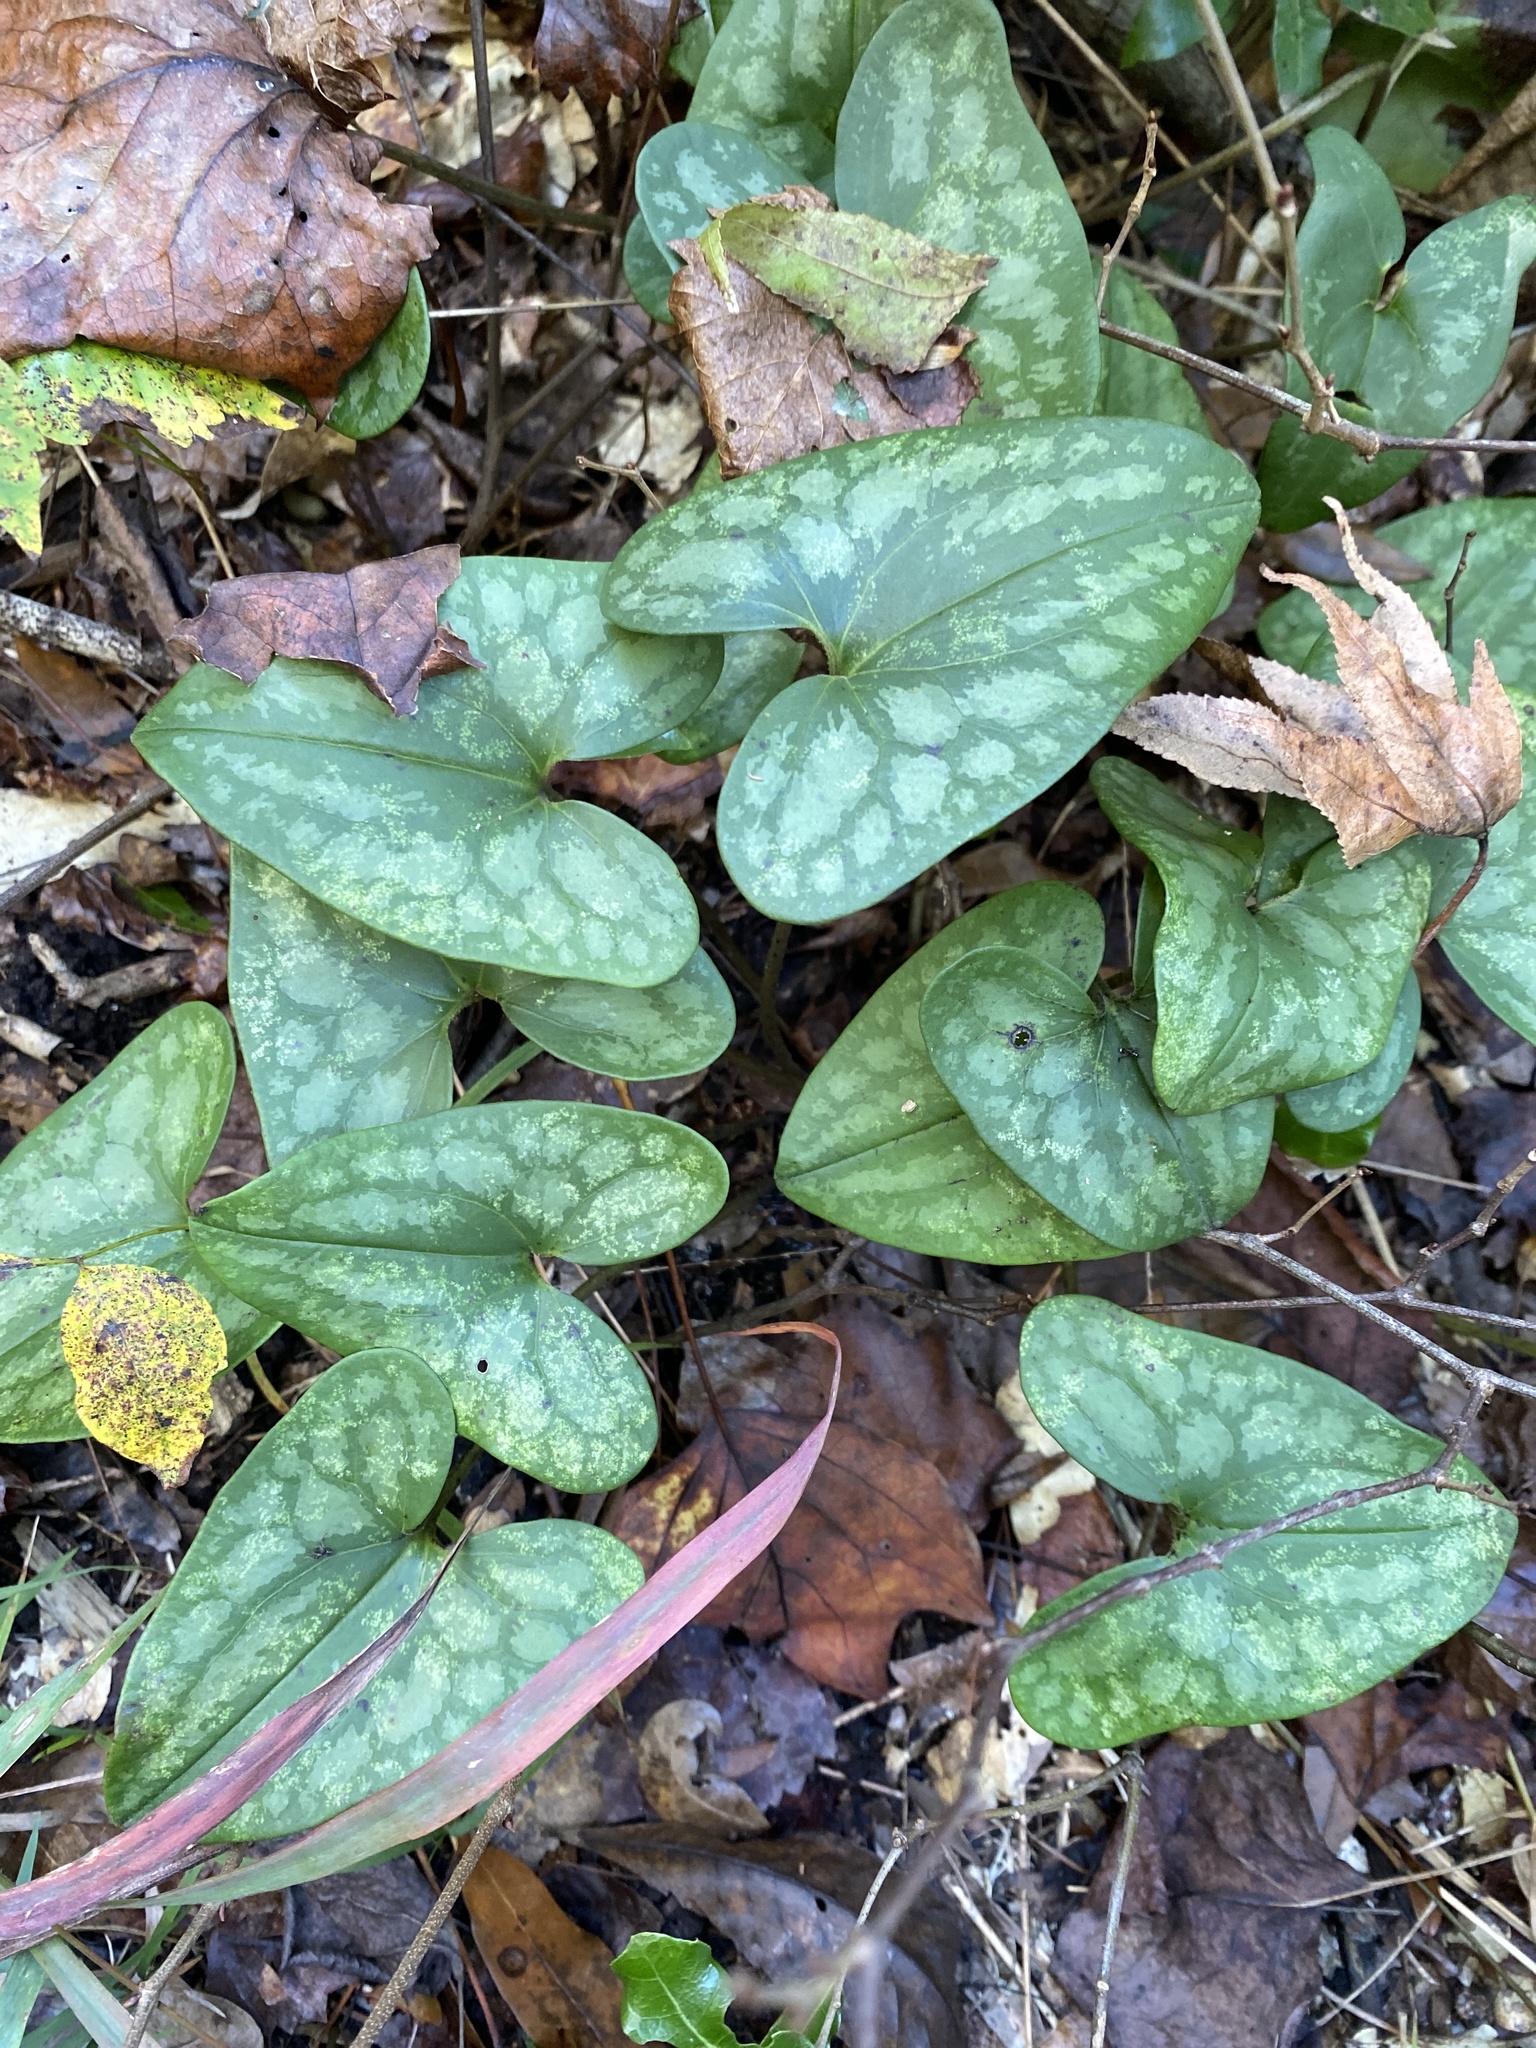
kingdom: Plantae
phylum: Tracheophyta
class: Magnoliopsida
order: Piperales
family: Aristolochiaceae
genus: Hexastylis
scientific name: Hexastylis arifolia
